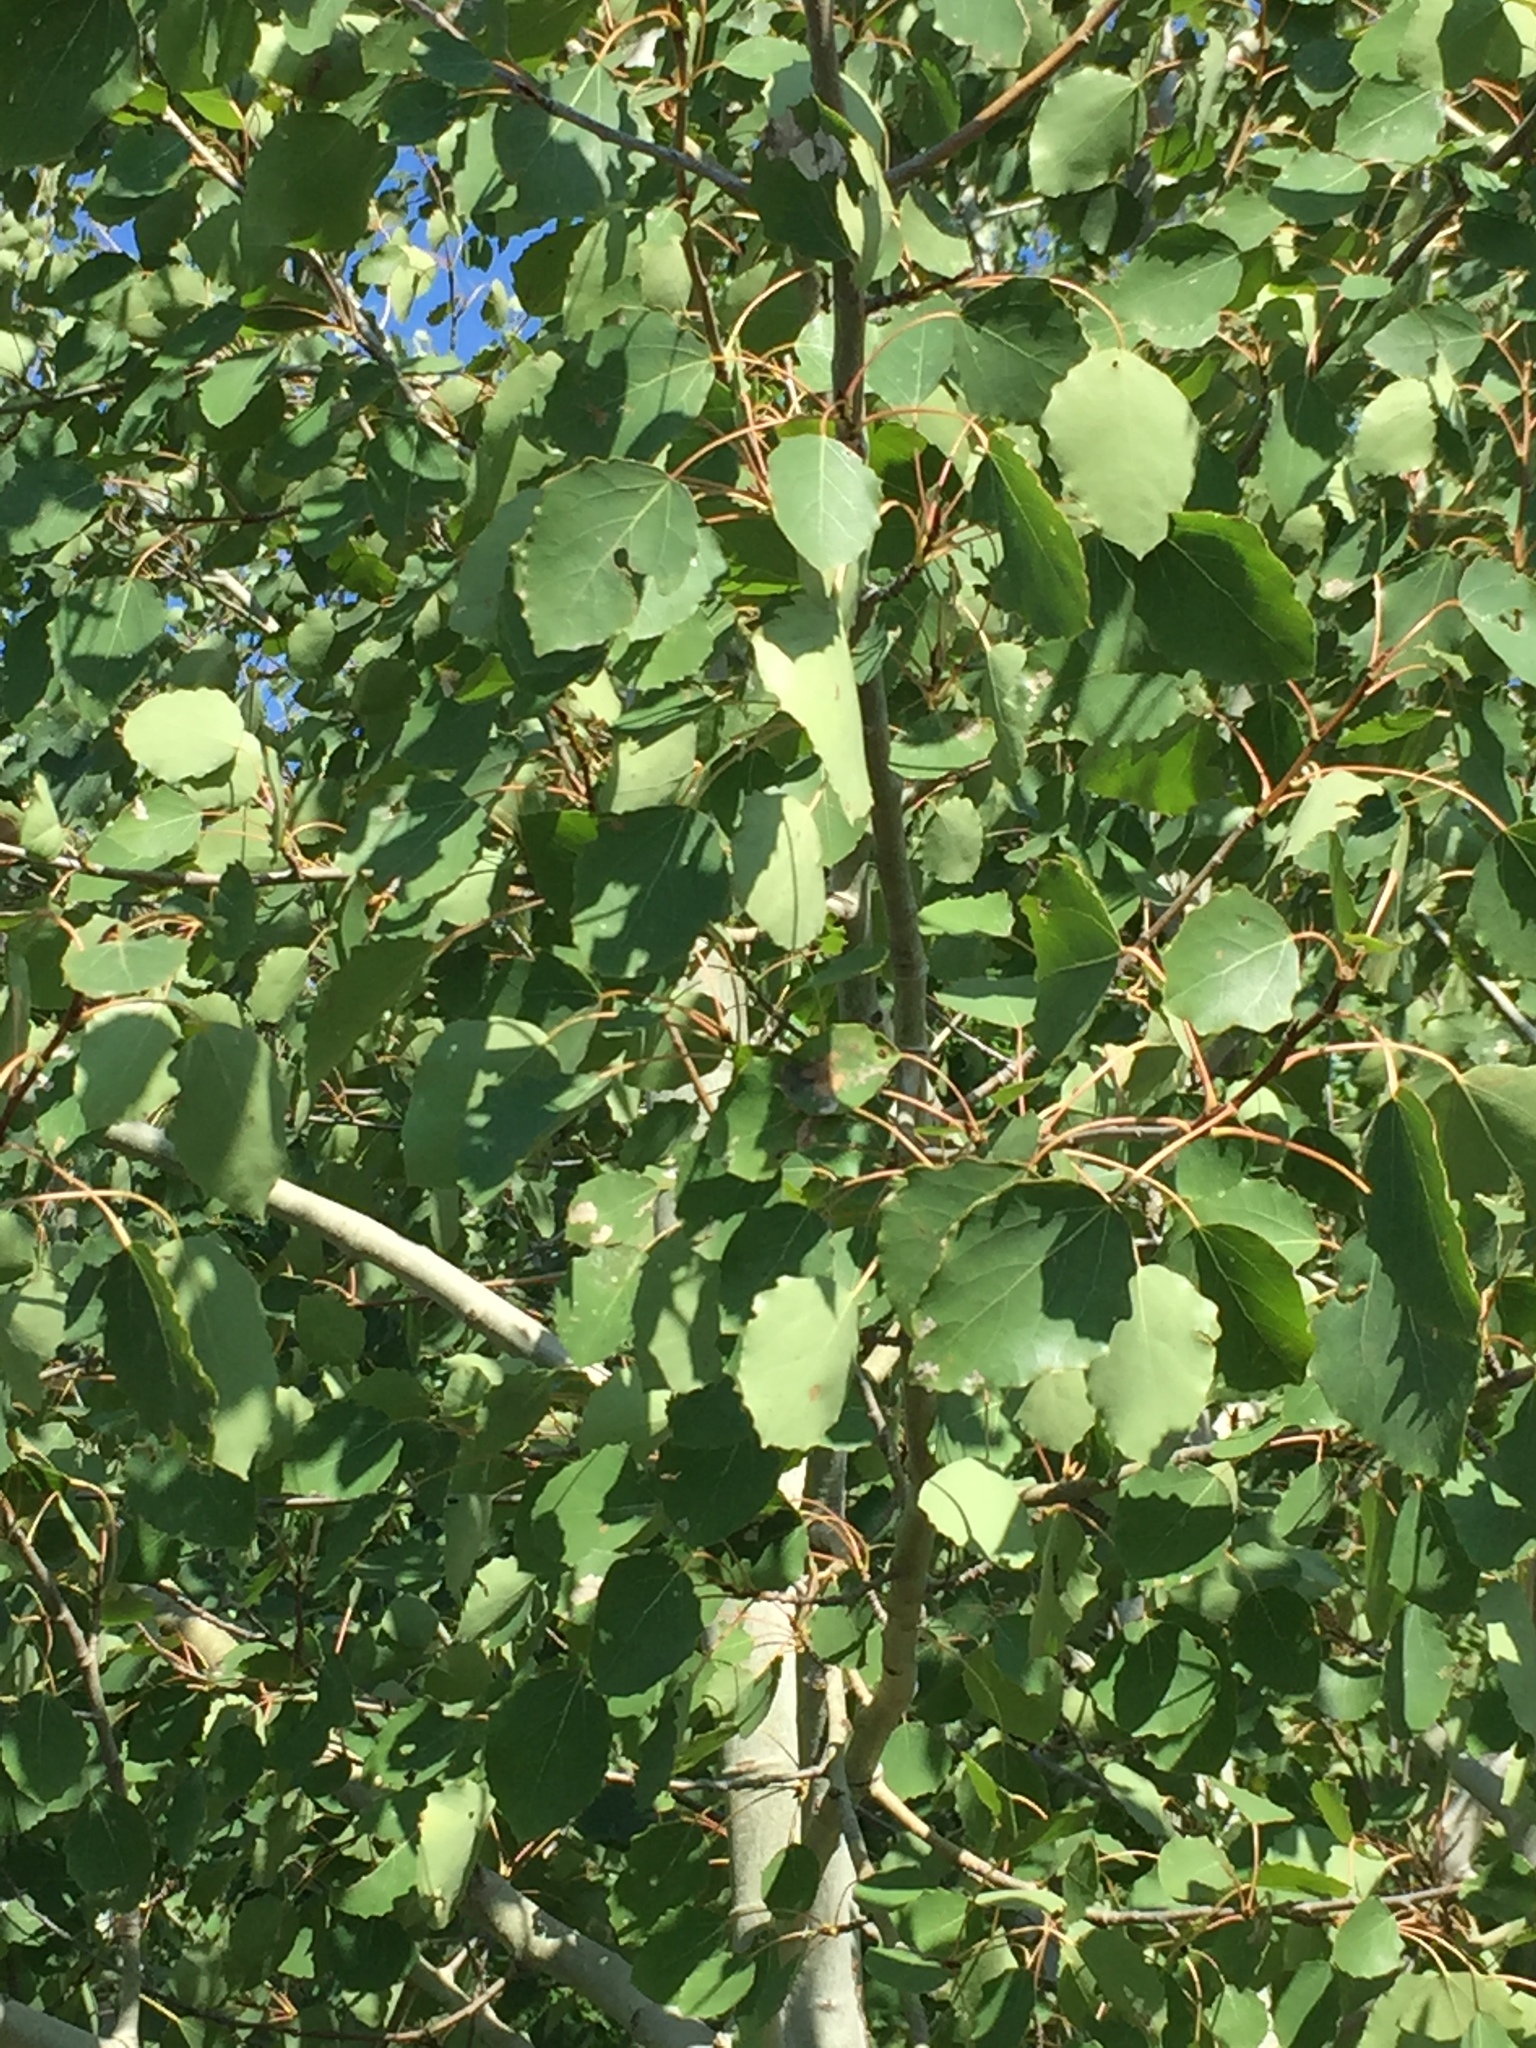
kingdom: Plantae
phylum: Tracheophyta
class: Magnoliopsida
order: Malpighiales
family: Salicaceae
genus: Populus
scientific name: Populus tremula
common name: European aspen
